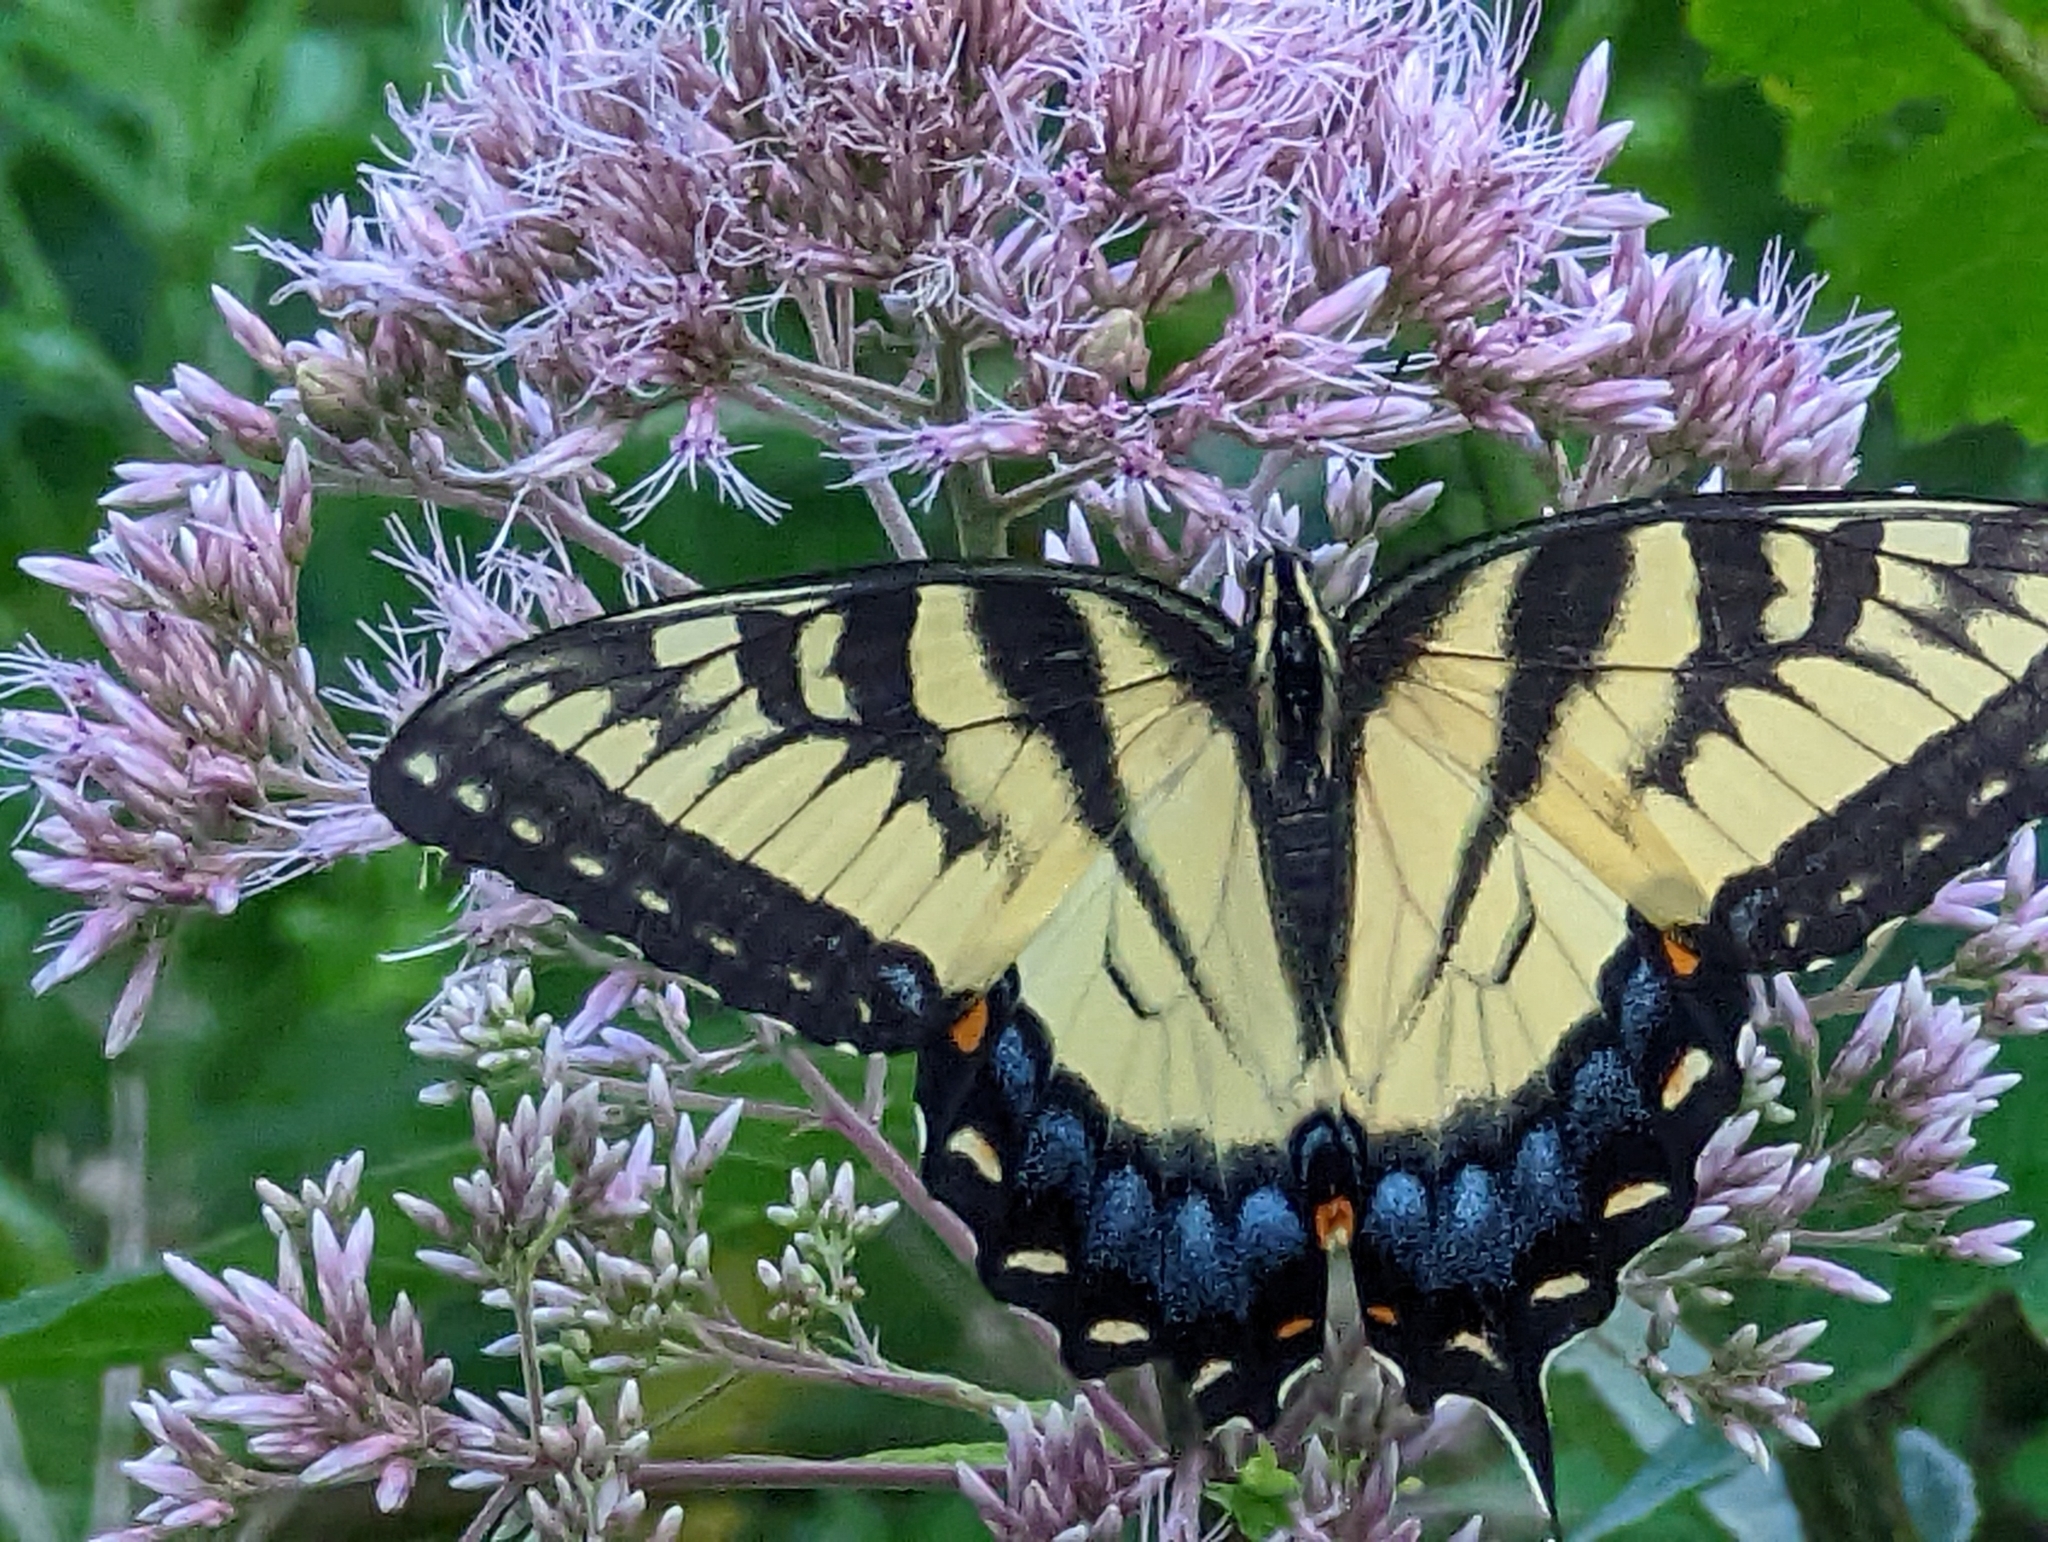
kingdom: Animalia
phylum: Arthropoda
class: Insecta
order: Lepidoptera
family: Papilionidae
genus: Papilio
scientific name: Papilio glaucus
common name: Tiger swallowtail
